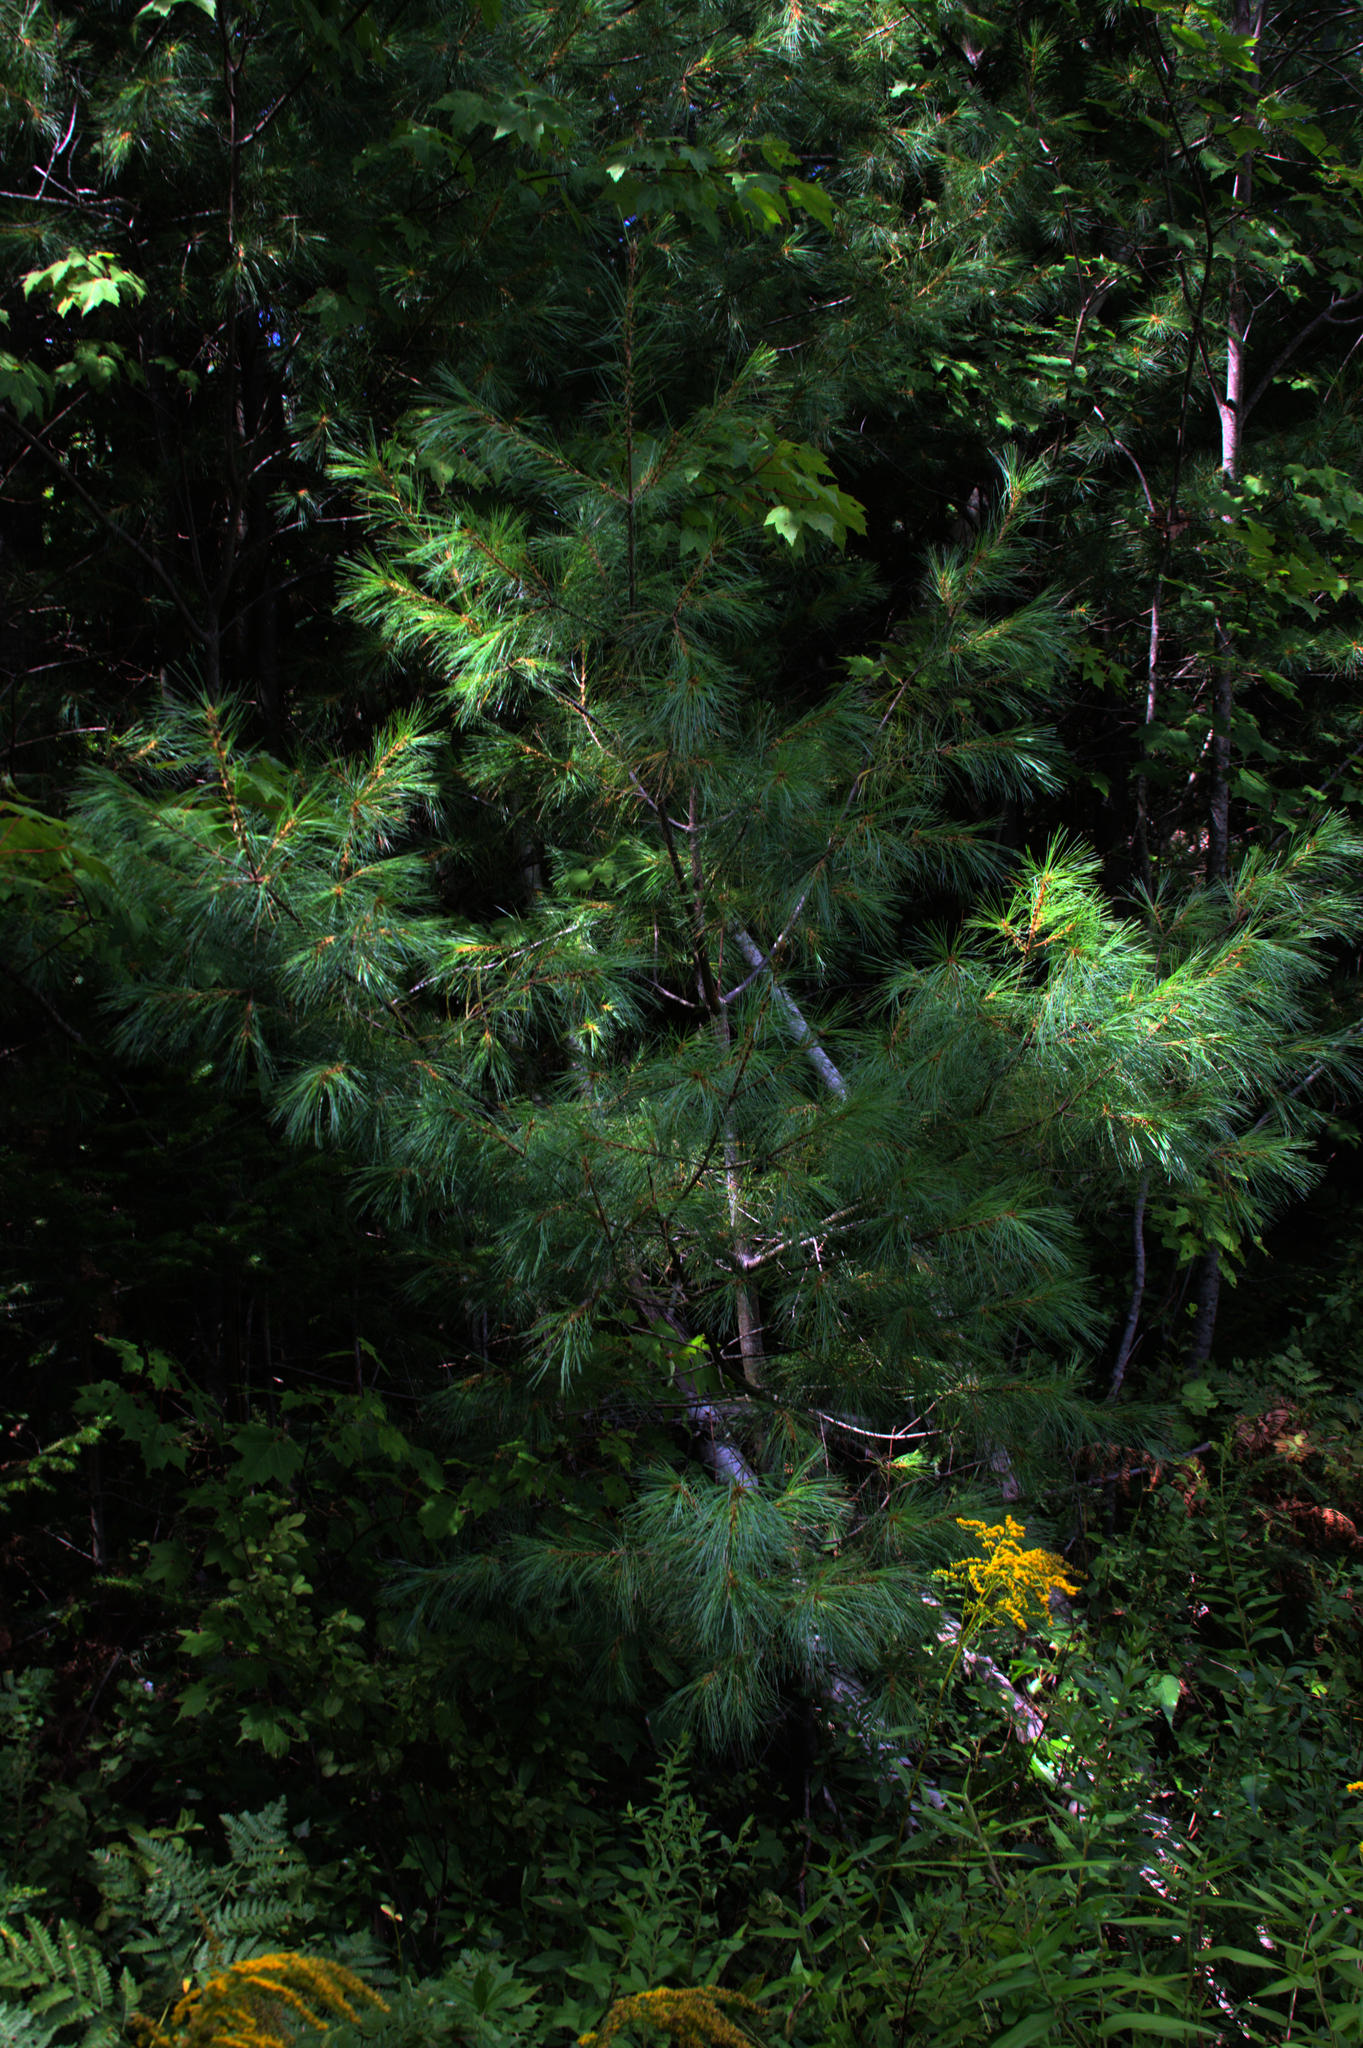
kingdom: Plantae
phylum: Tracheophyta
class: Pinopsida
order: Pinales
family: Pinaceae
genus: Pinus
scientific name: Pinus strobus
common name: Weymouth pine
